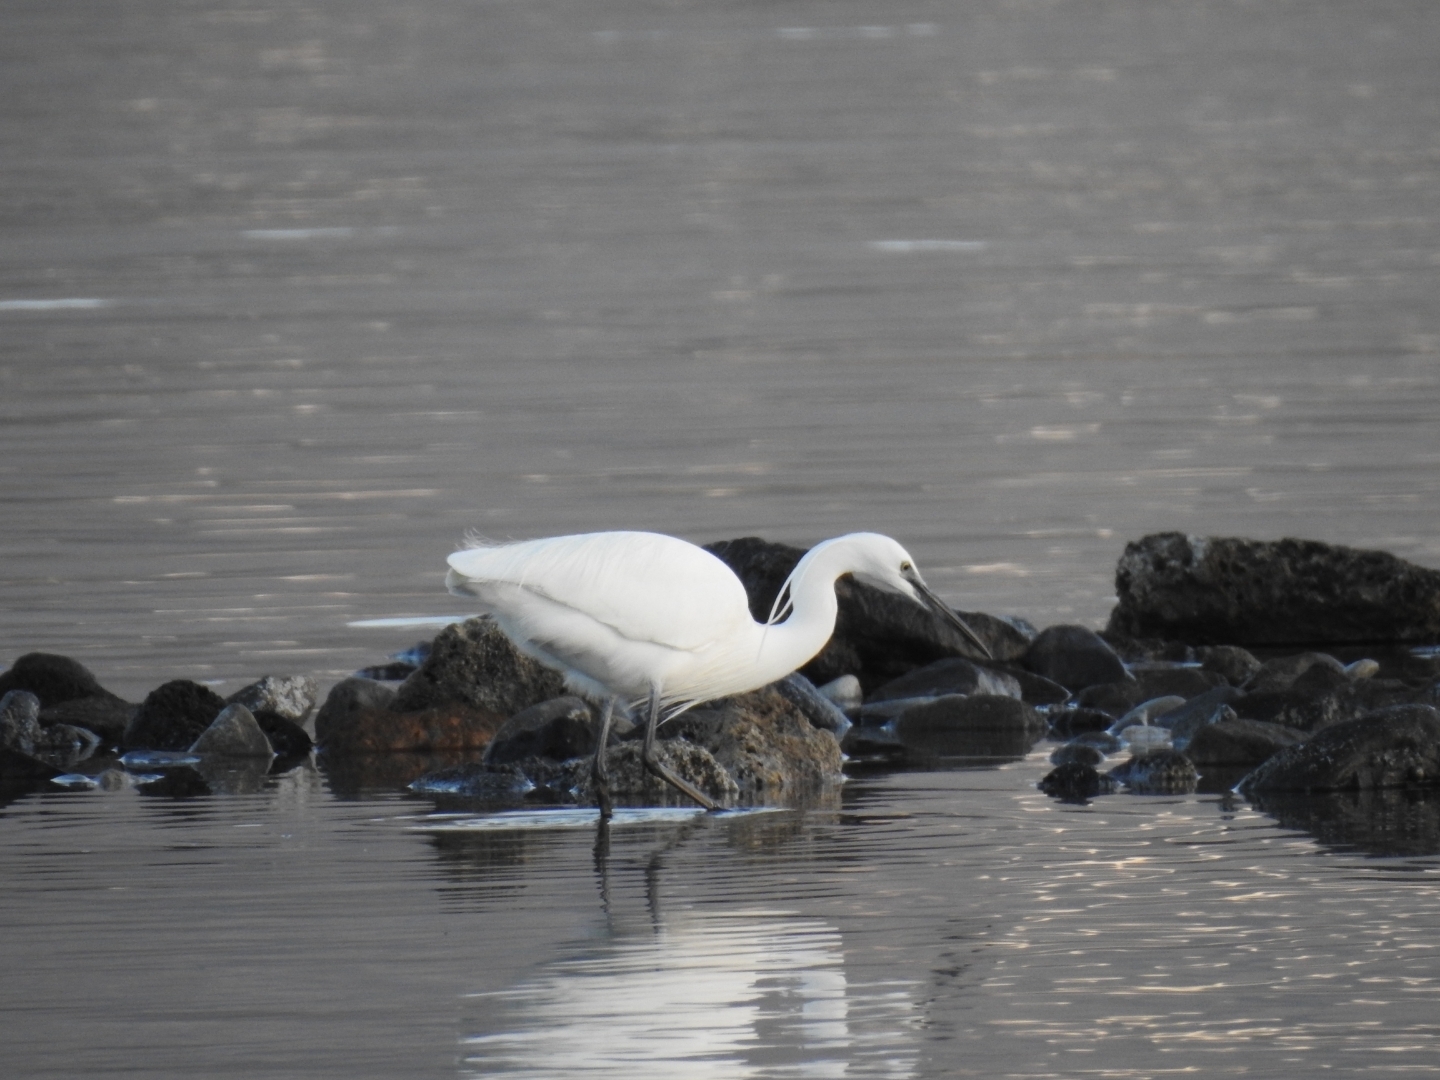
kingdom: Animalia
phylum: Chordata
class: Aves
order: Pelecaniformes
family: Ardeidae
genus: Egretta
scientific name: Egretta garzetta
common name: Little egret
